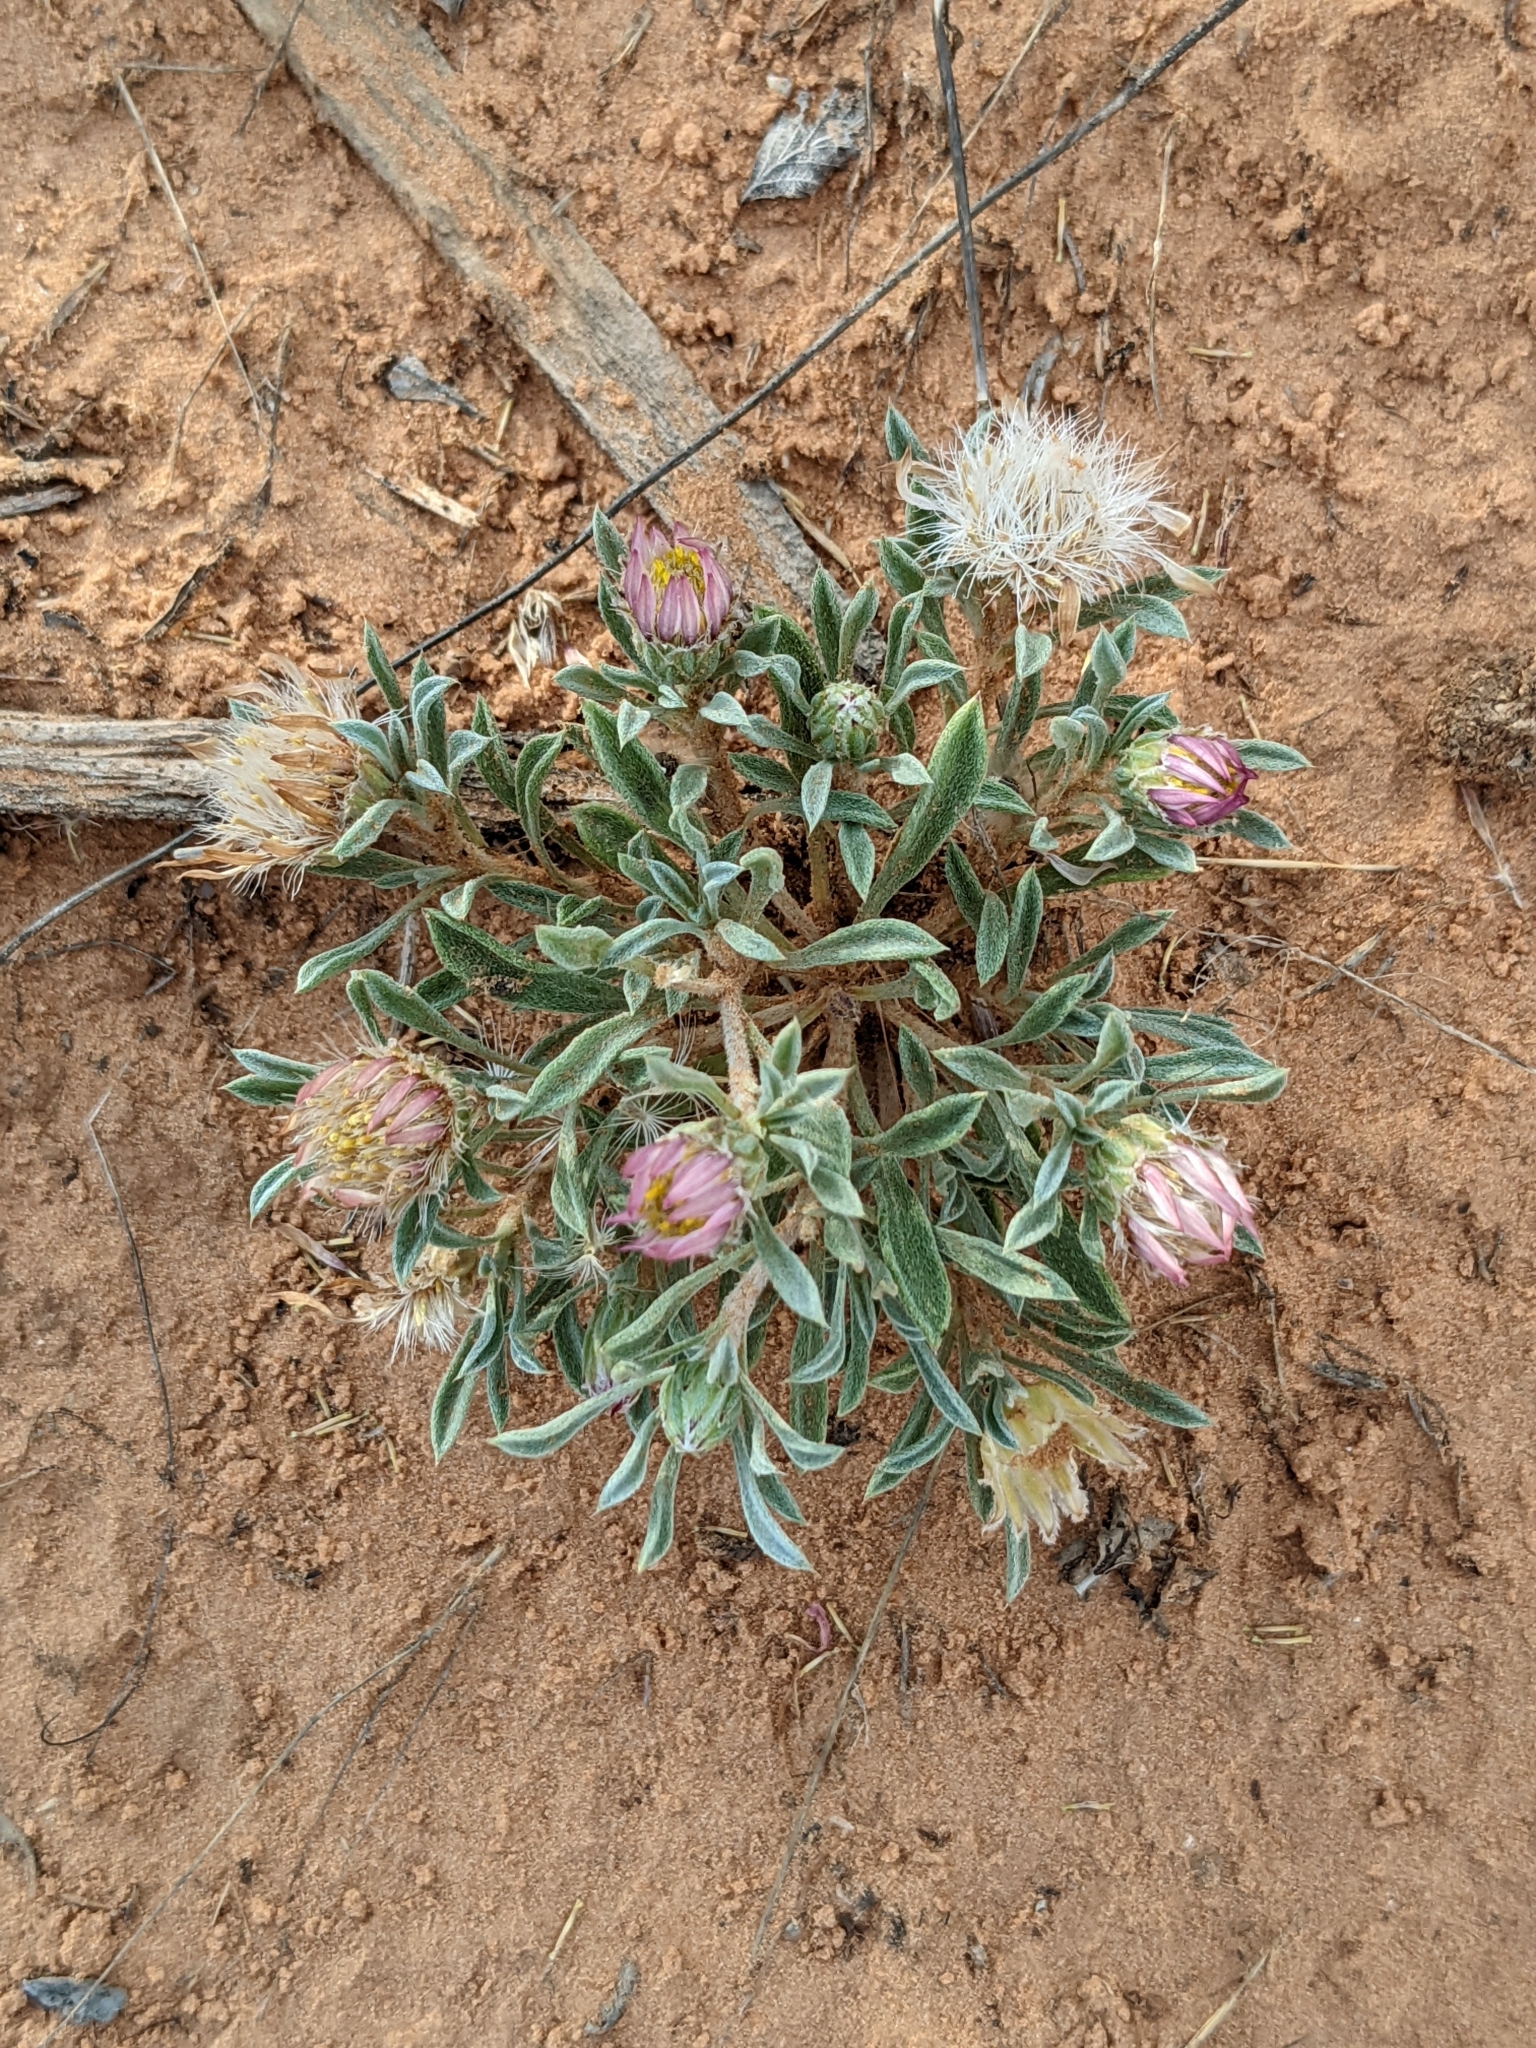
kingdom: Plantae
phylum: Tracheophyta
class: Magnoliopsida
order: Asterales
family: Asteraceae
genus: Townsendia
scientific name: Townsendia incana
